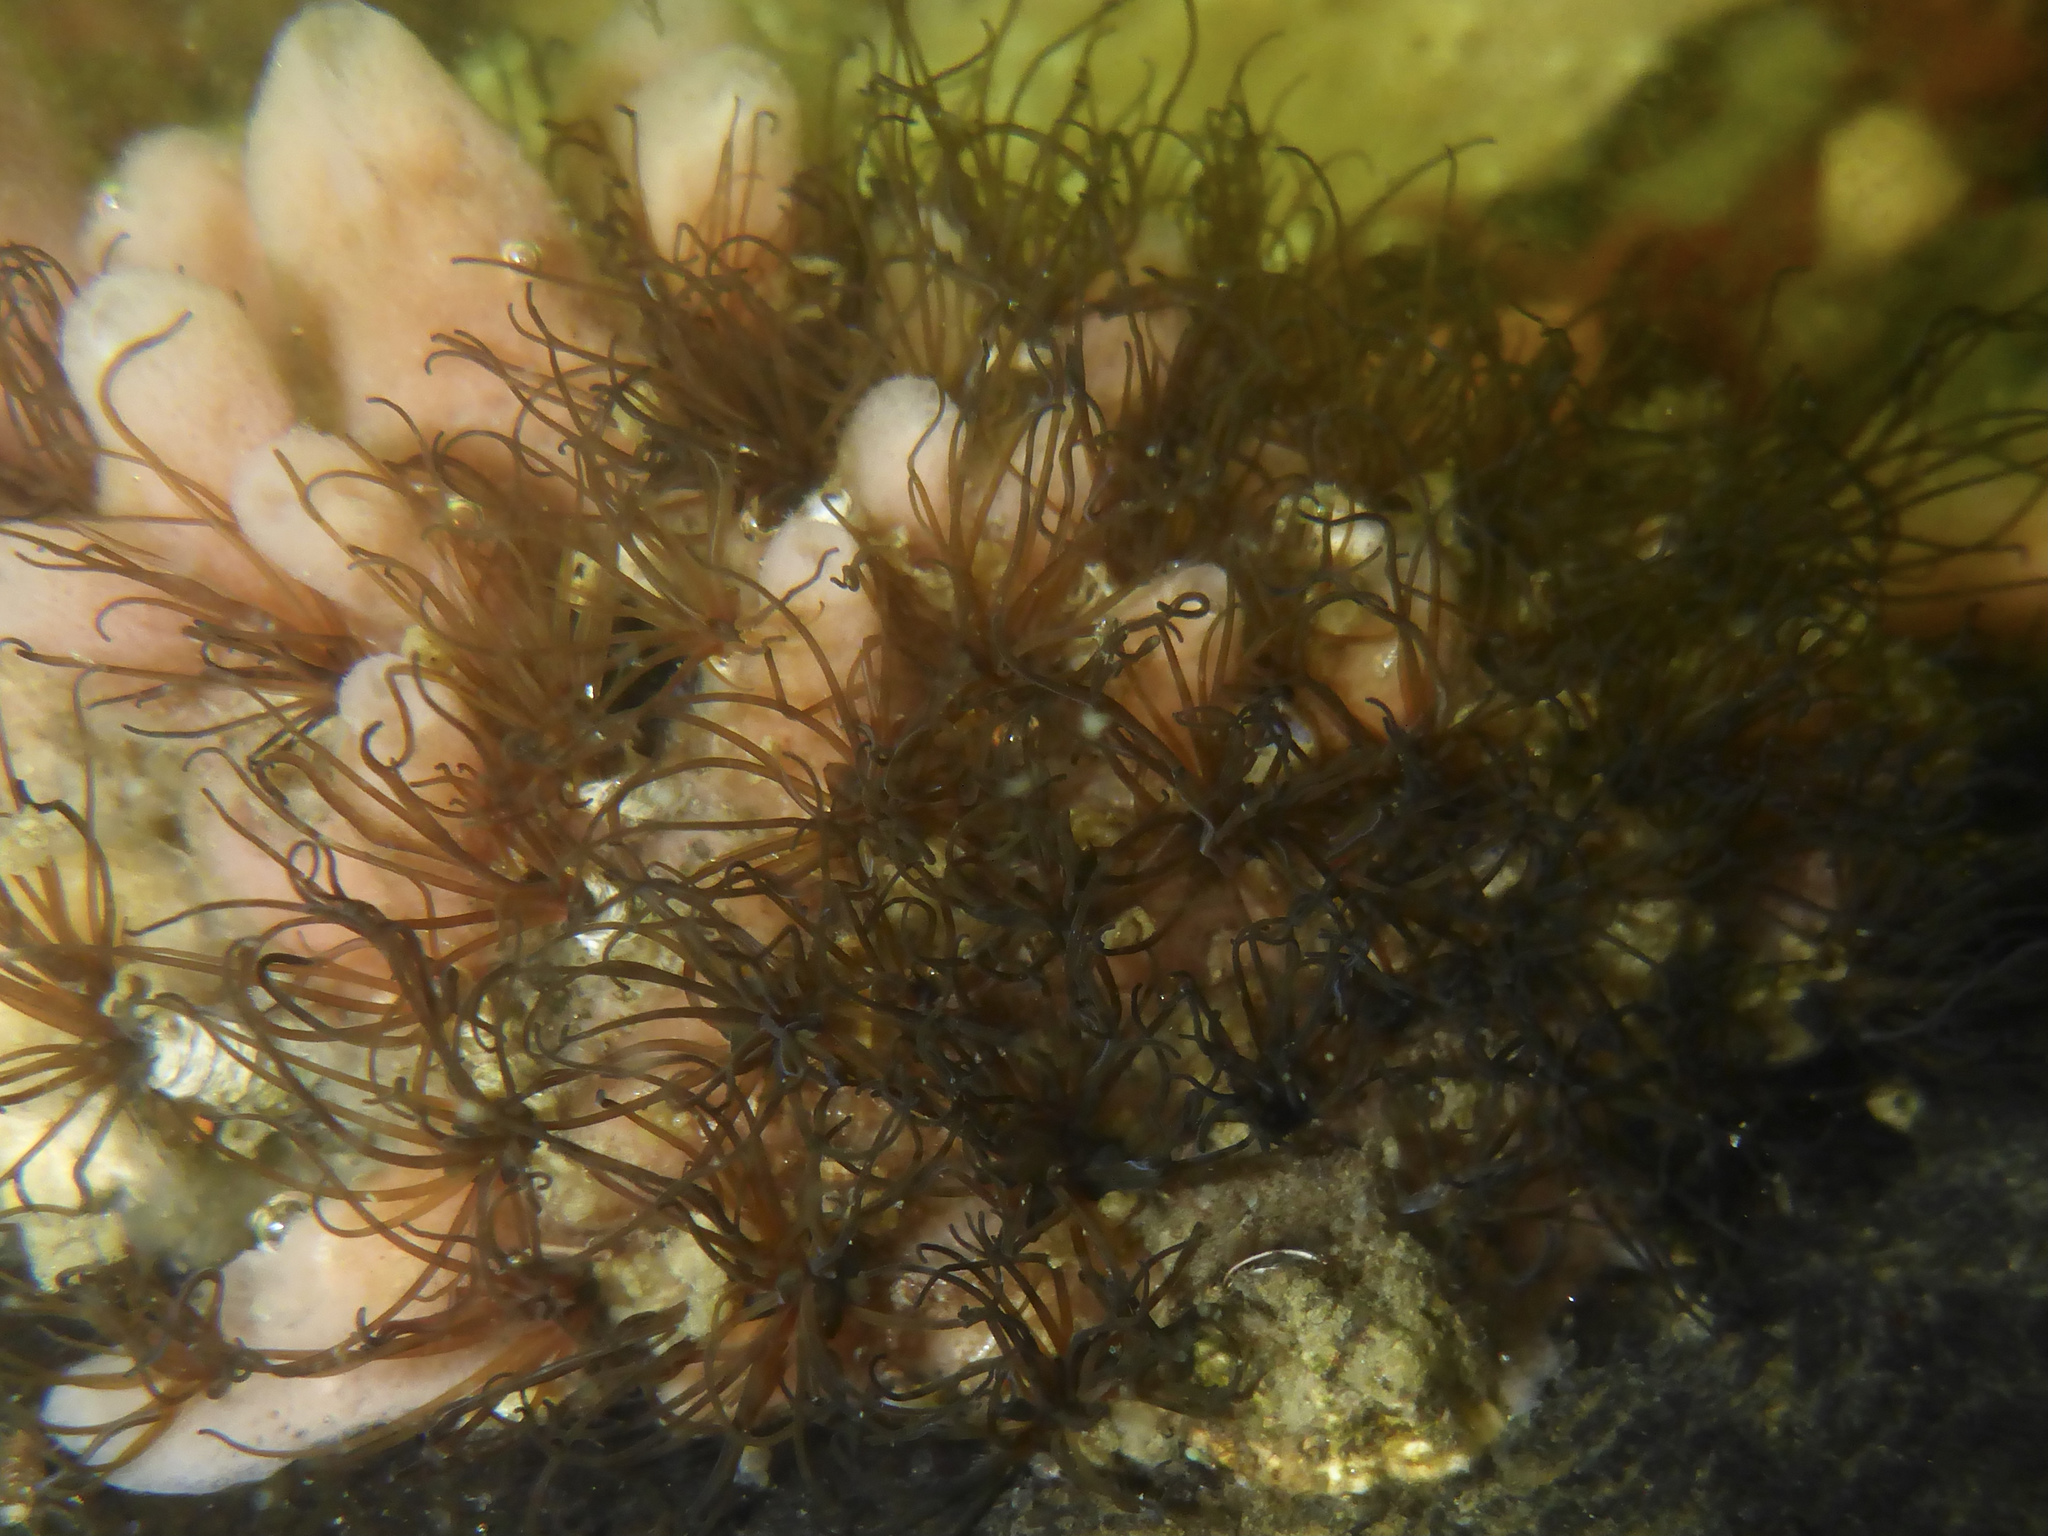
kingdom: Animalia
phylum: Annelida
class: Polychaeta
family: Cirratulidae
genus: Dodecaceria
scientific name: Dodecaceria pacifica
